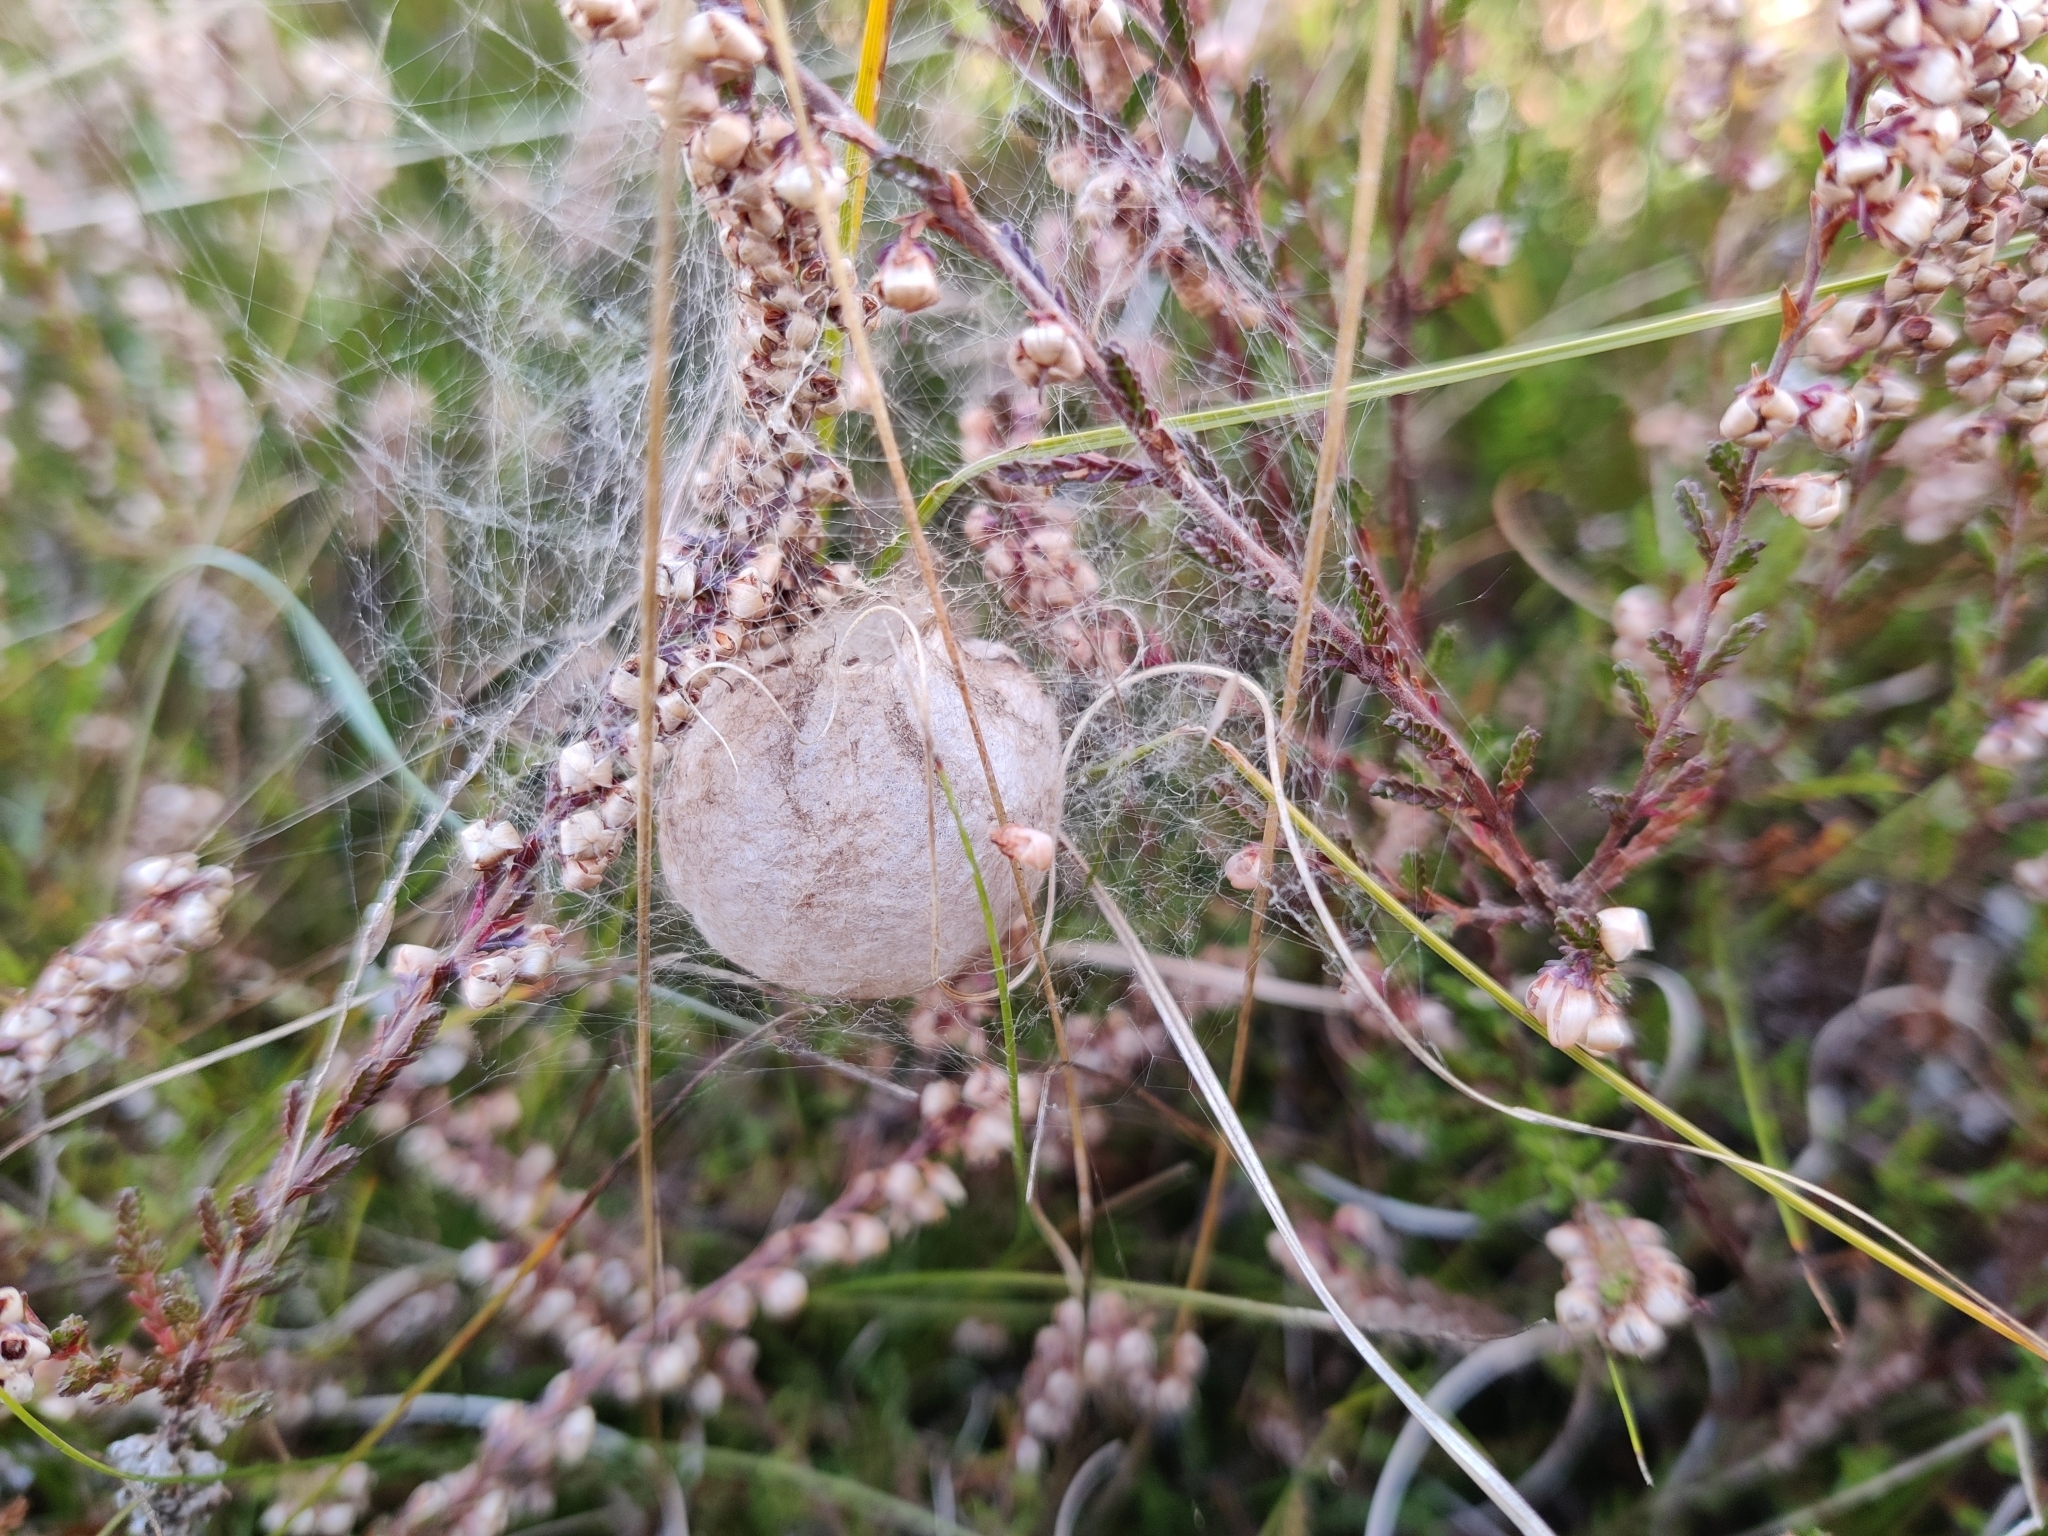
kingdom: Animalia
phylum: Arthropoda
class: Arachnida
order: Araneae
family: Araneidae
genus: Argiope
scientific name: Argiope bruennichi
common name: Wasp spider
